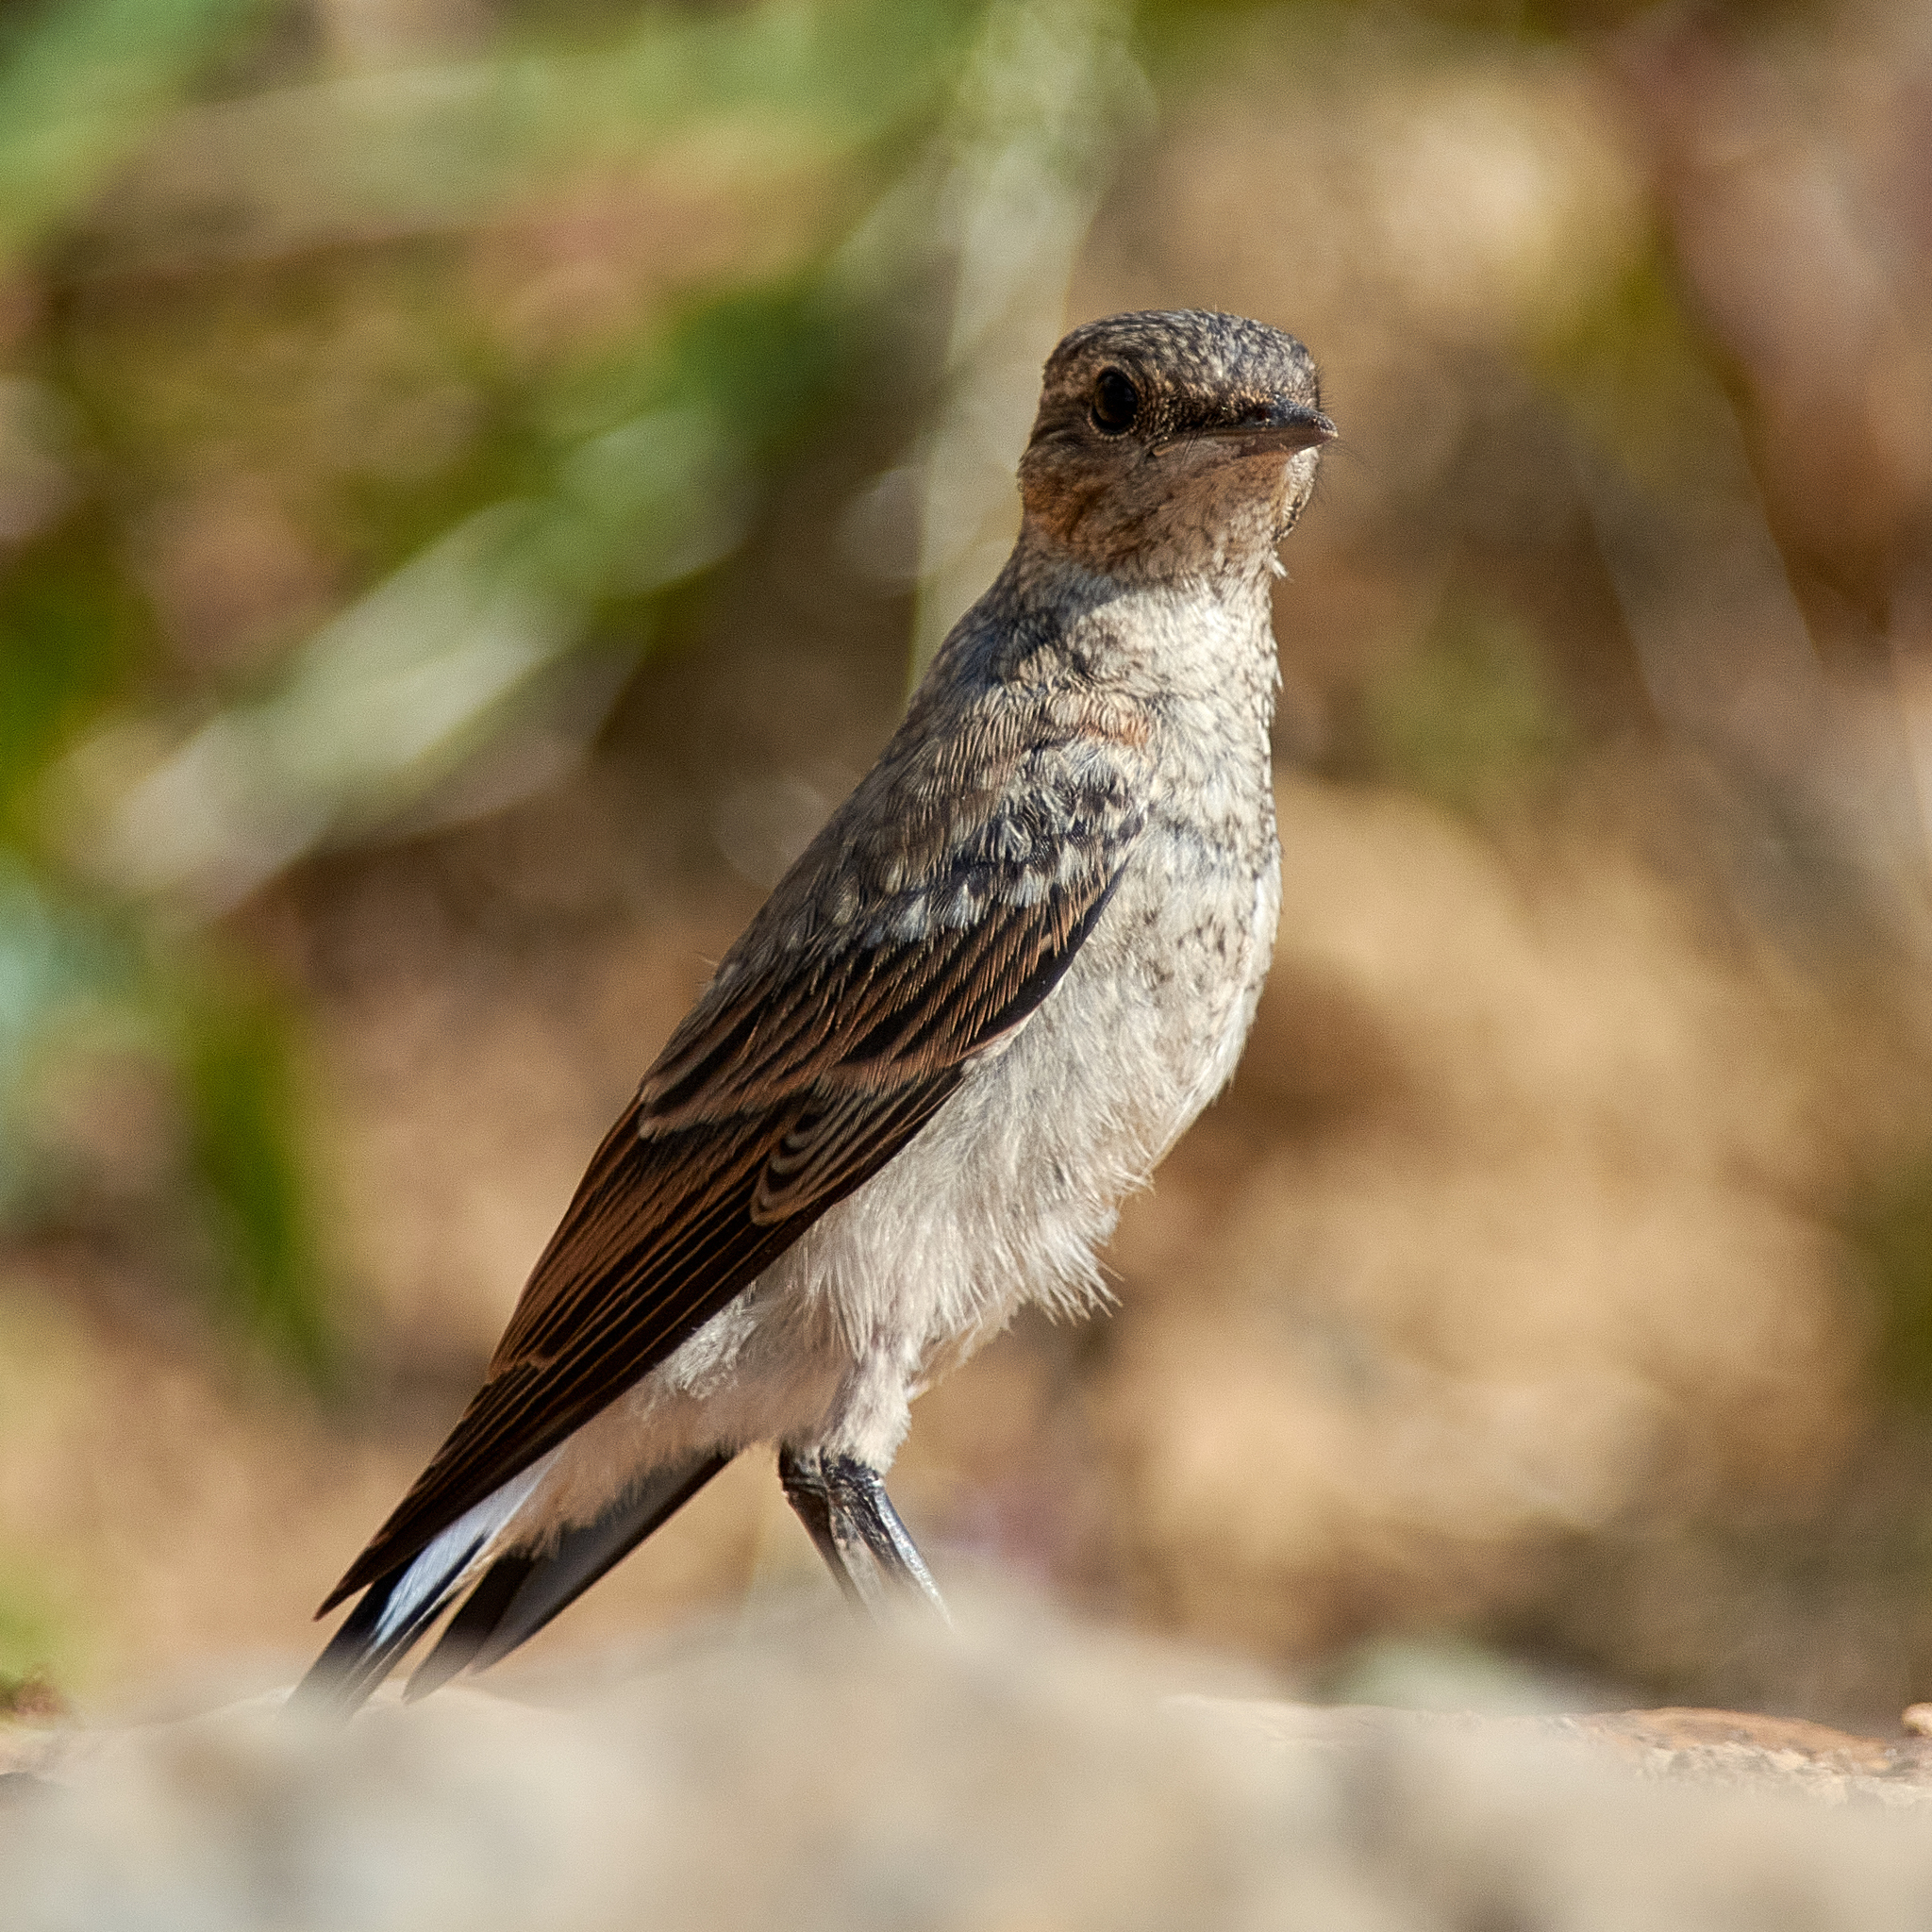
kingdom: Animalia
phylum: Chordata
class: Aves
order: Passeriformes
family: Muscicapidae
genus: Oenanthe
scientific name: Oenanthe oenanthe
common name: Northern wheatear
